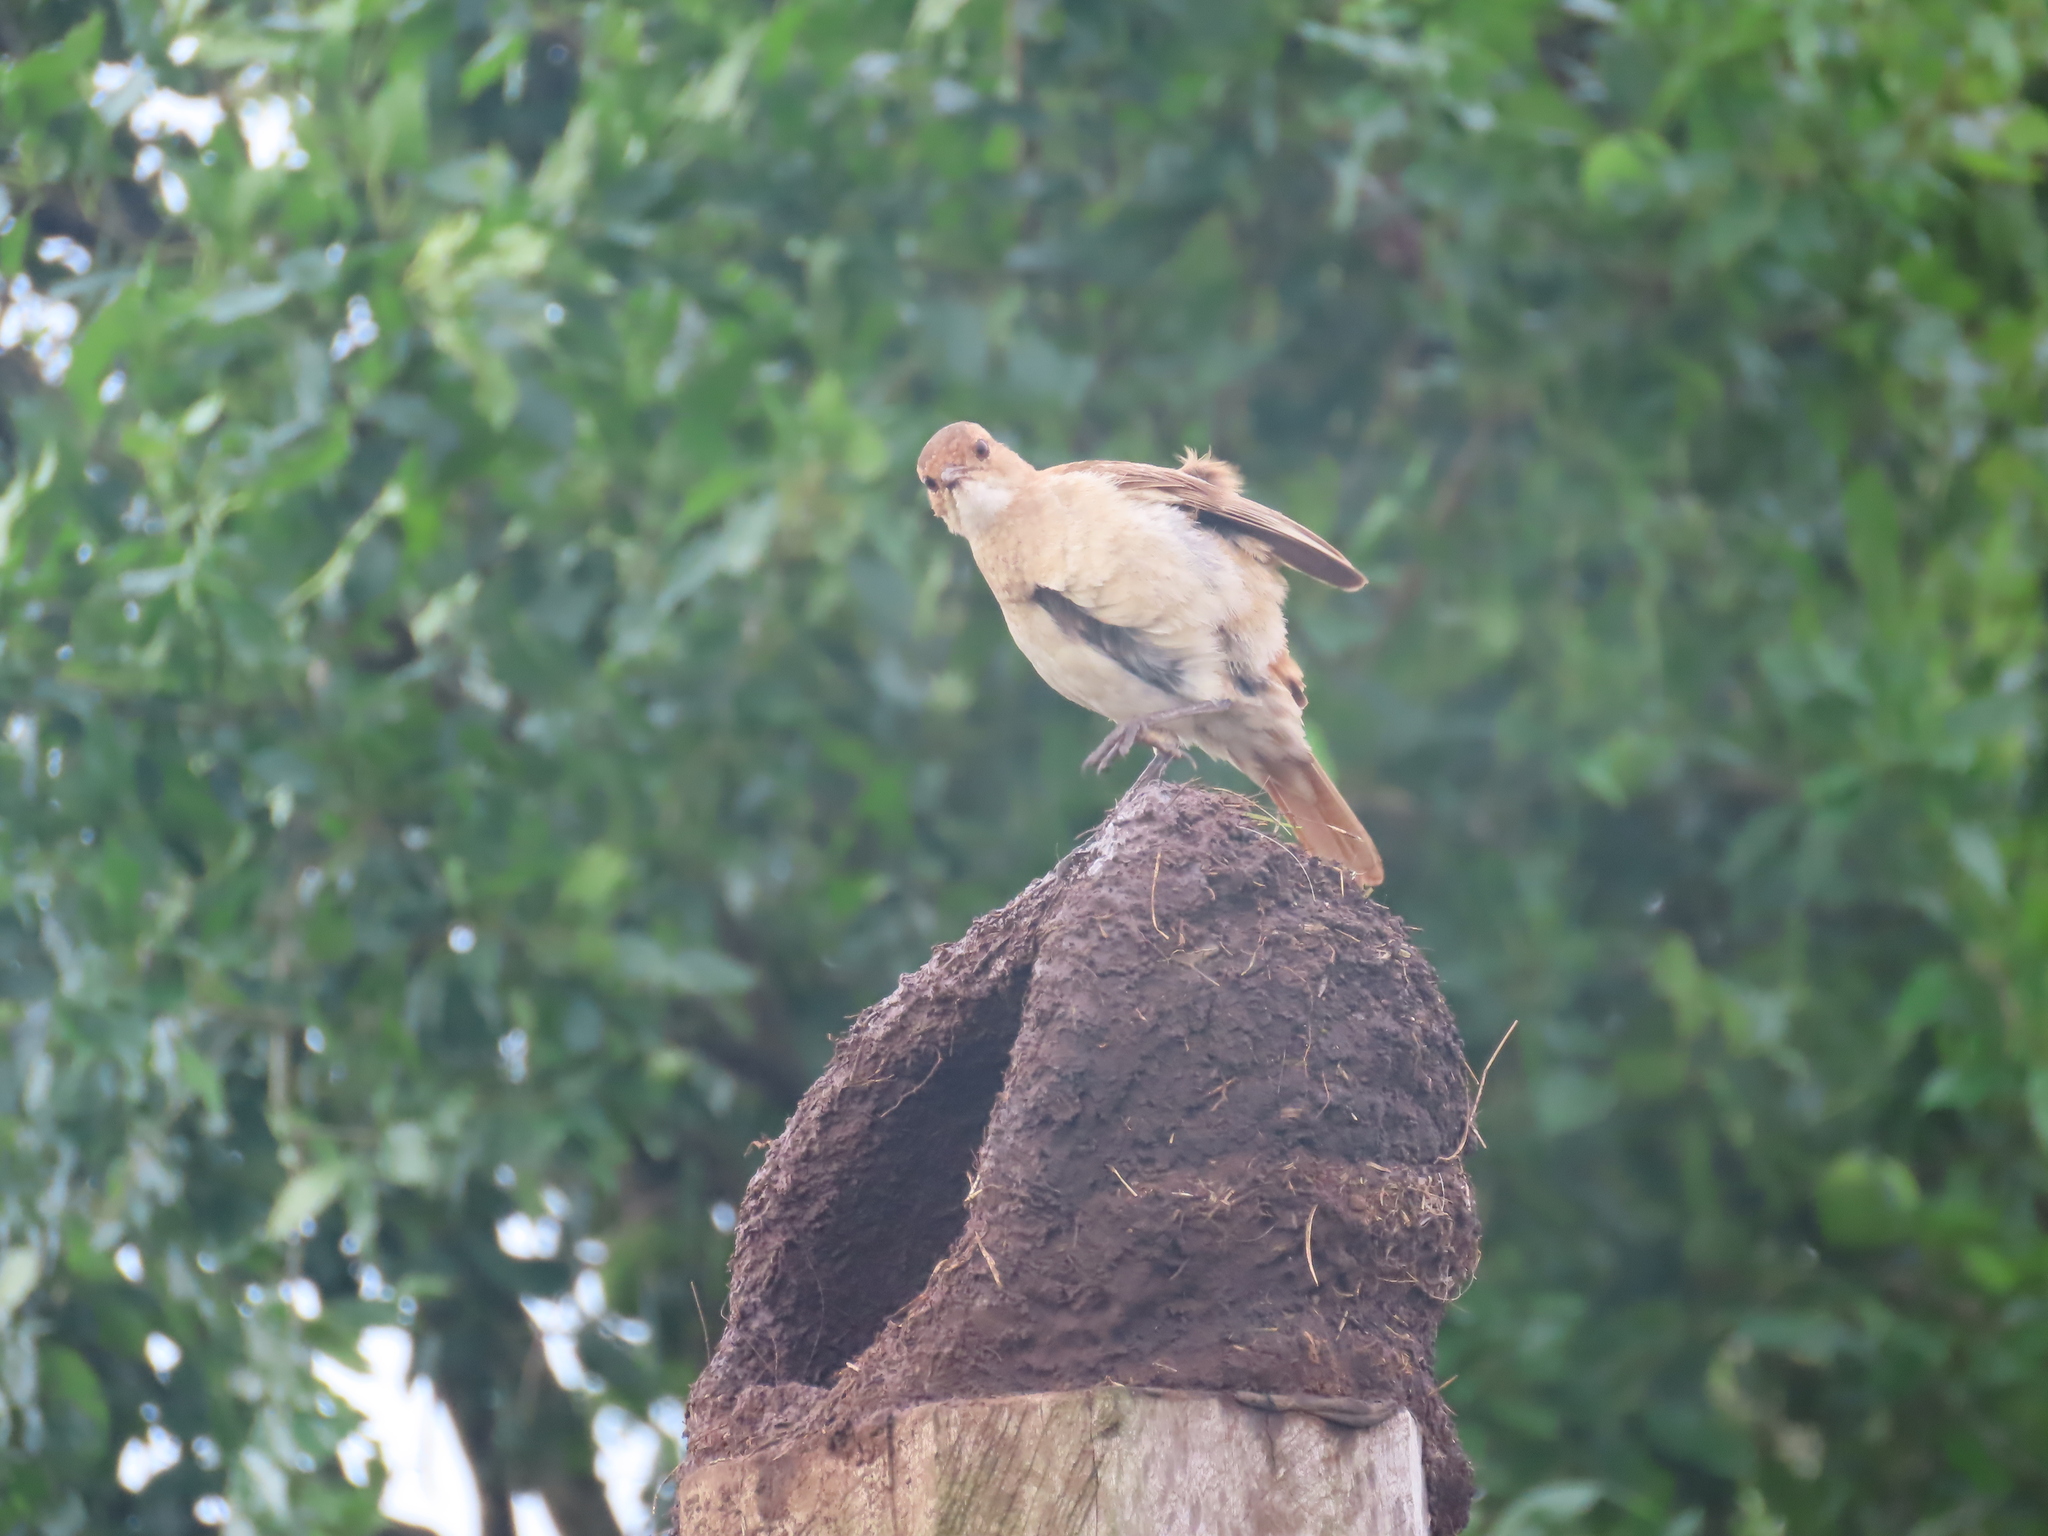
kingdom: Animalia
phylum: Chordata
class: Aves
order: Passeriformes
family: Furnariidae
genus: Furnarius
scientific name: Furnarius rufus
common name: Rufous hornero
